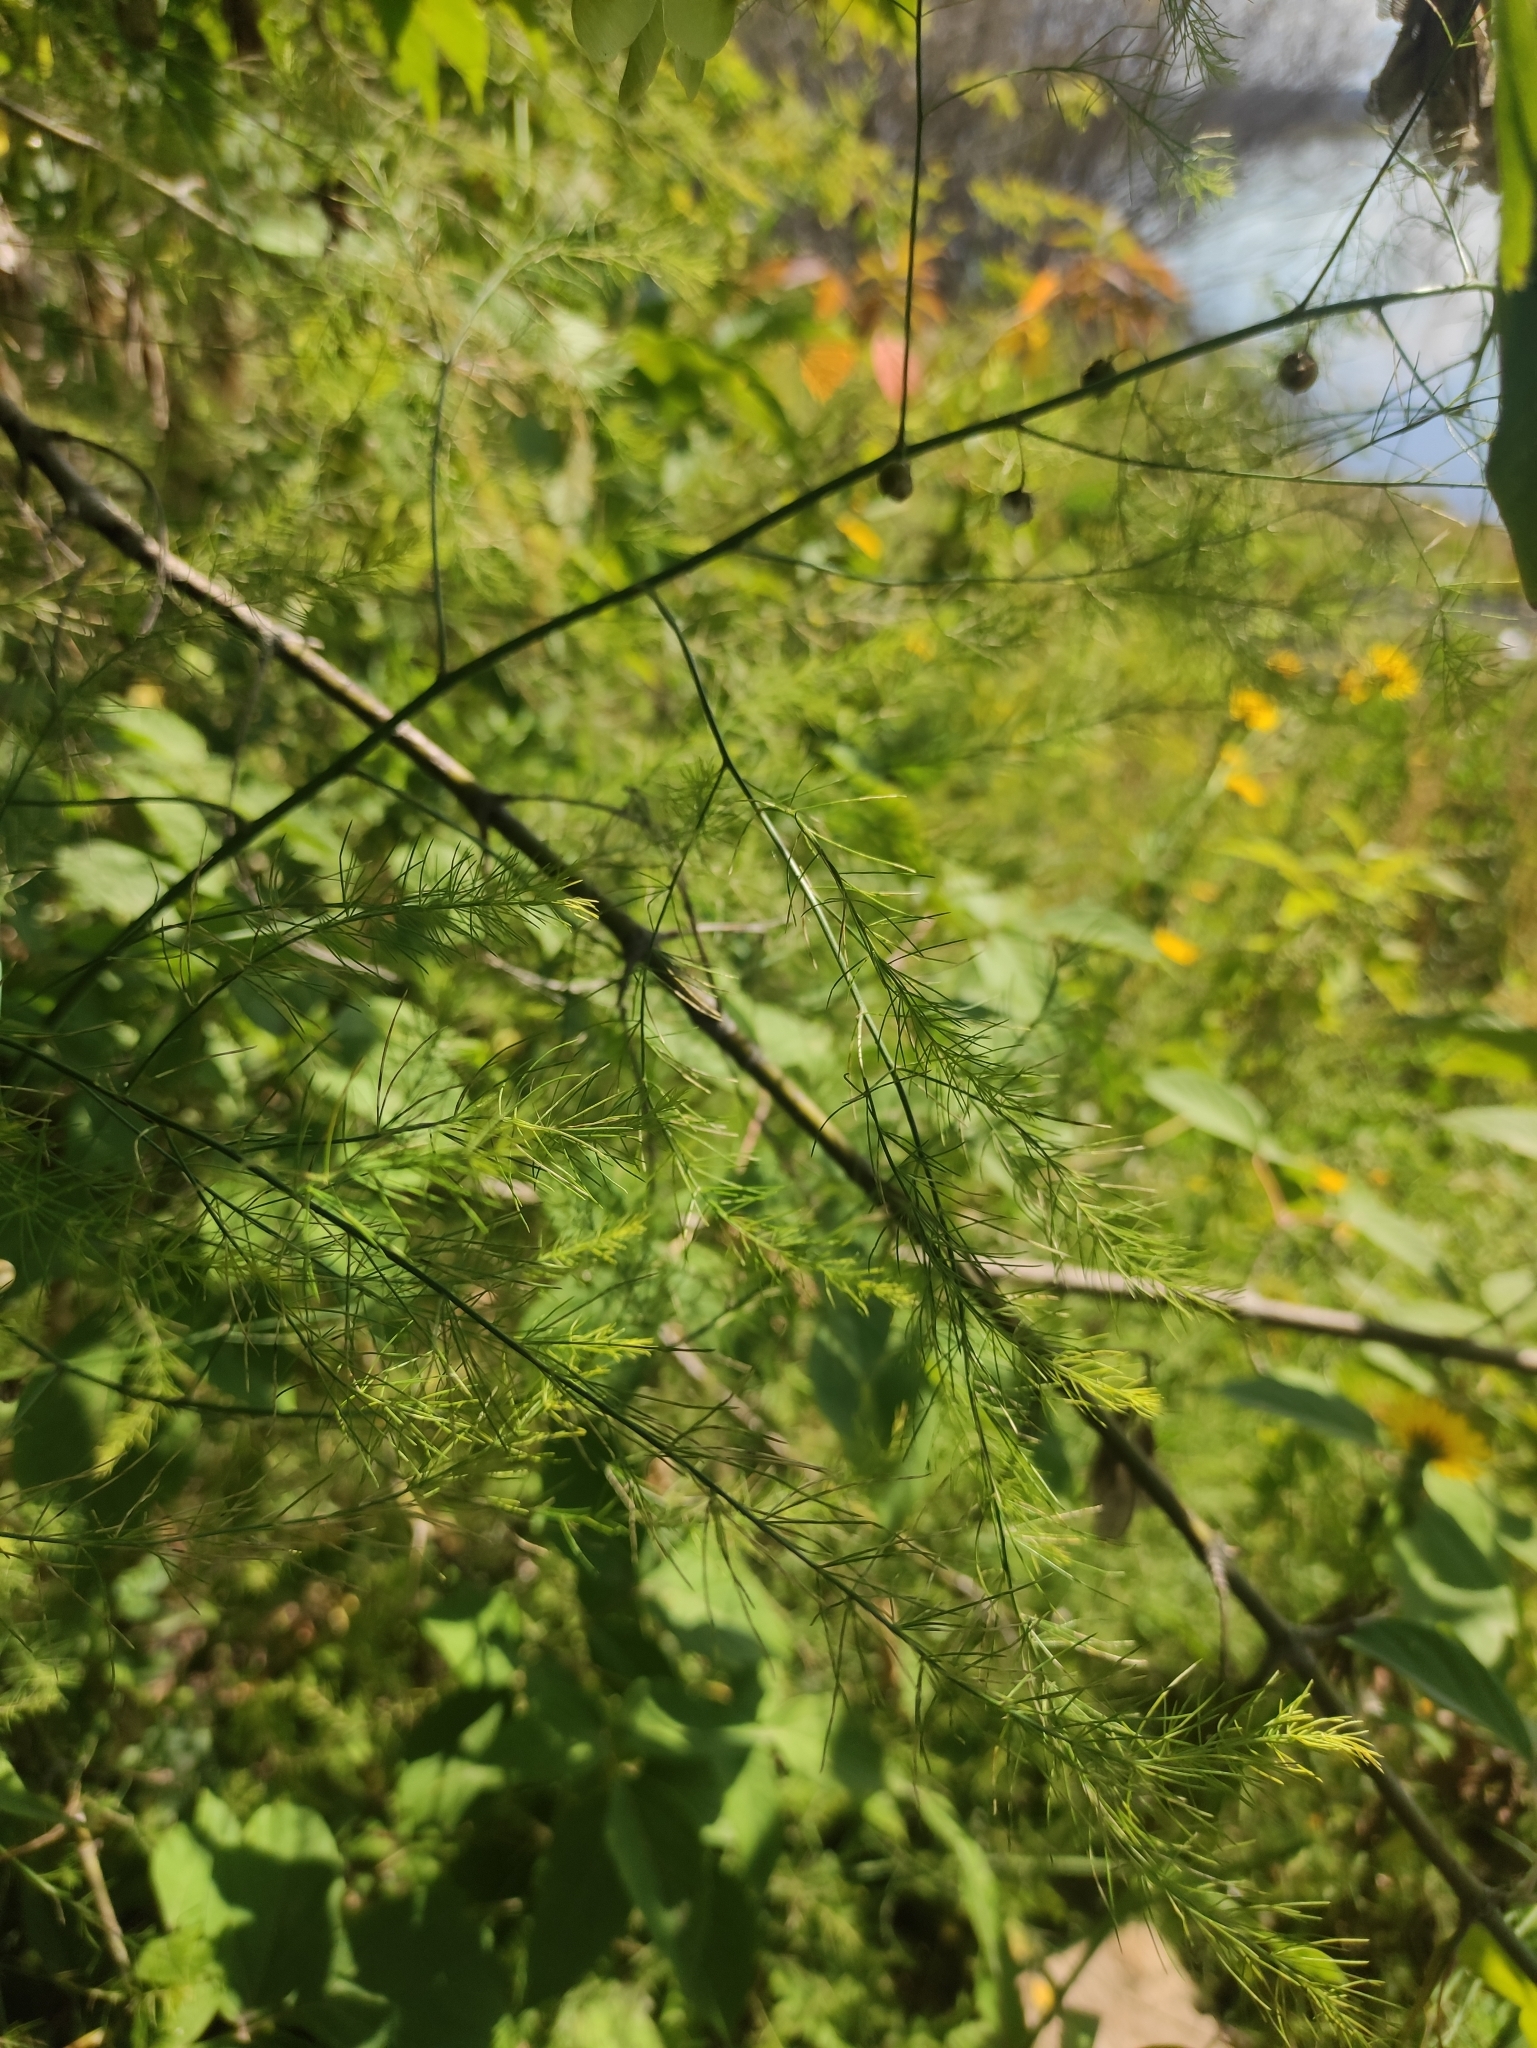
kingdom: Plantae
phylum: Tracheophyta
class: Liliopsida
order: Asparagales
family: Asparagaceae
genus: Asparagus
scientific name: Asparagus officinalis
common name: Garden asparagus
